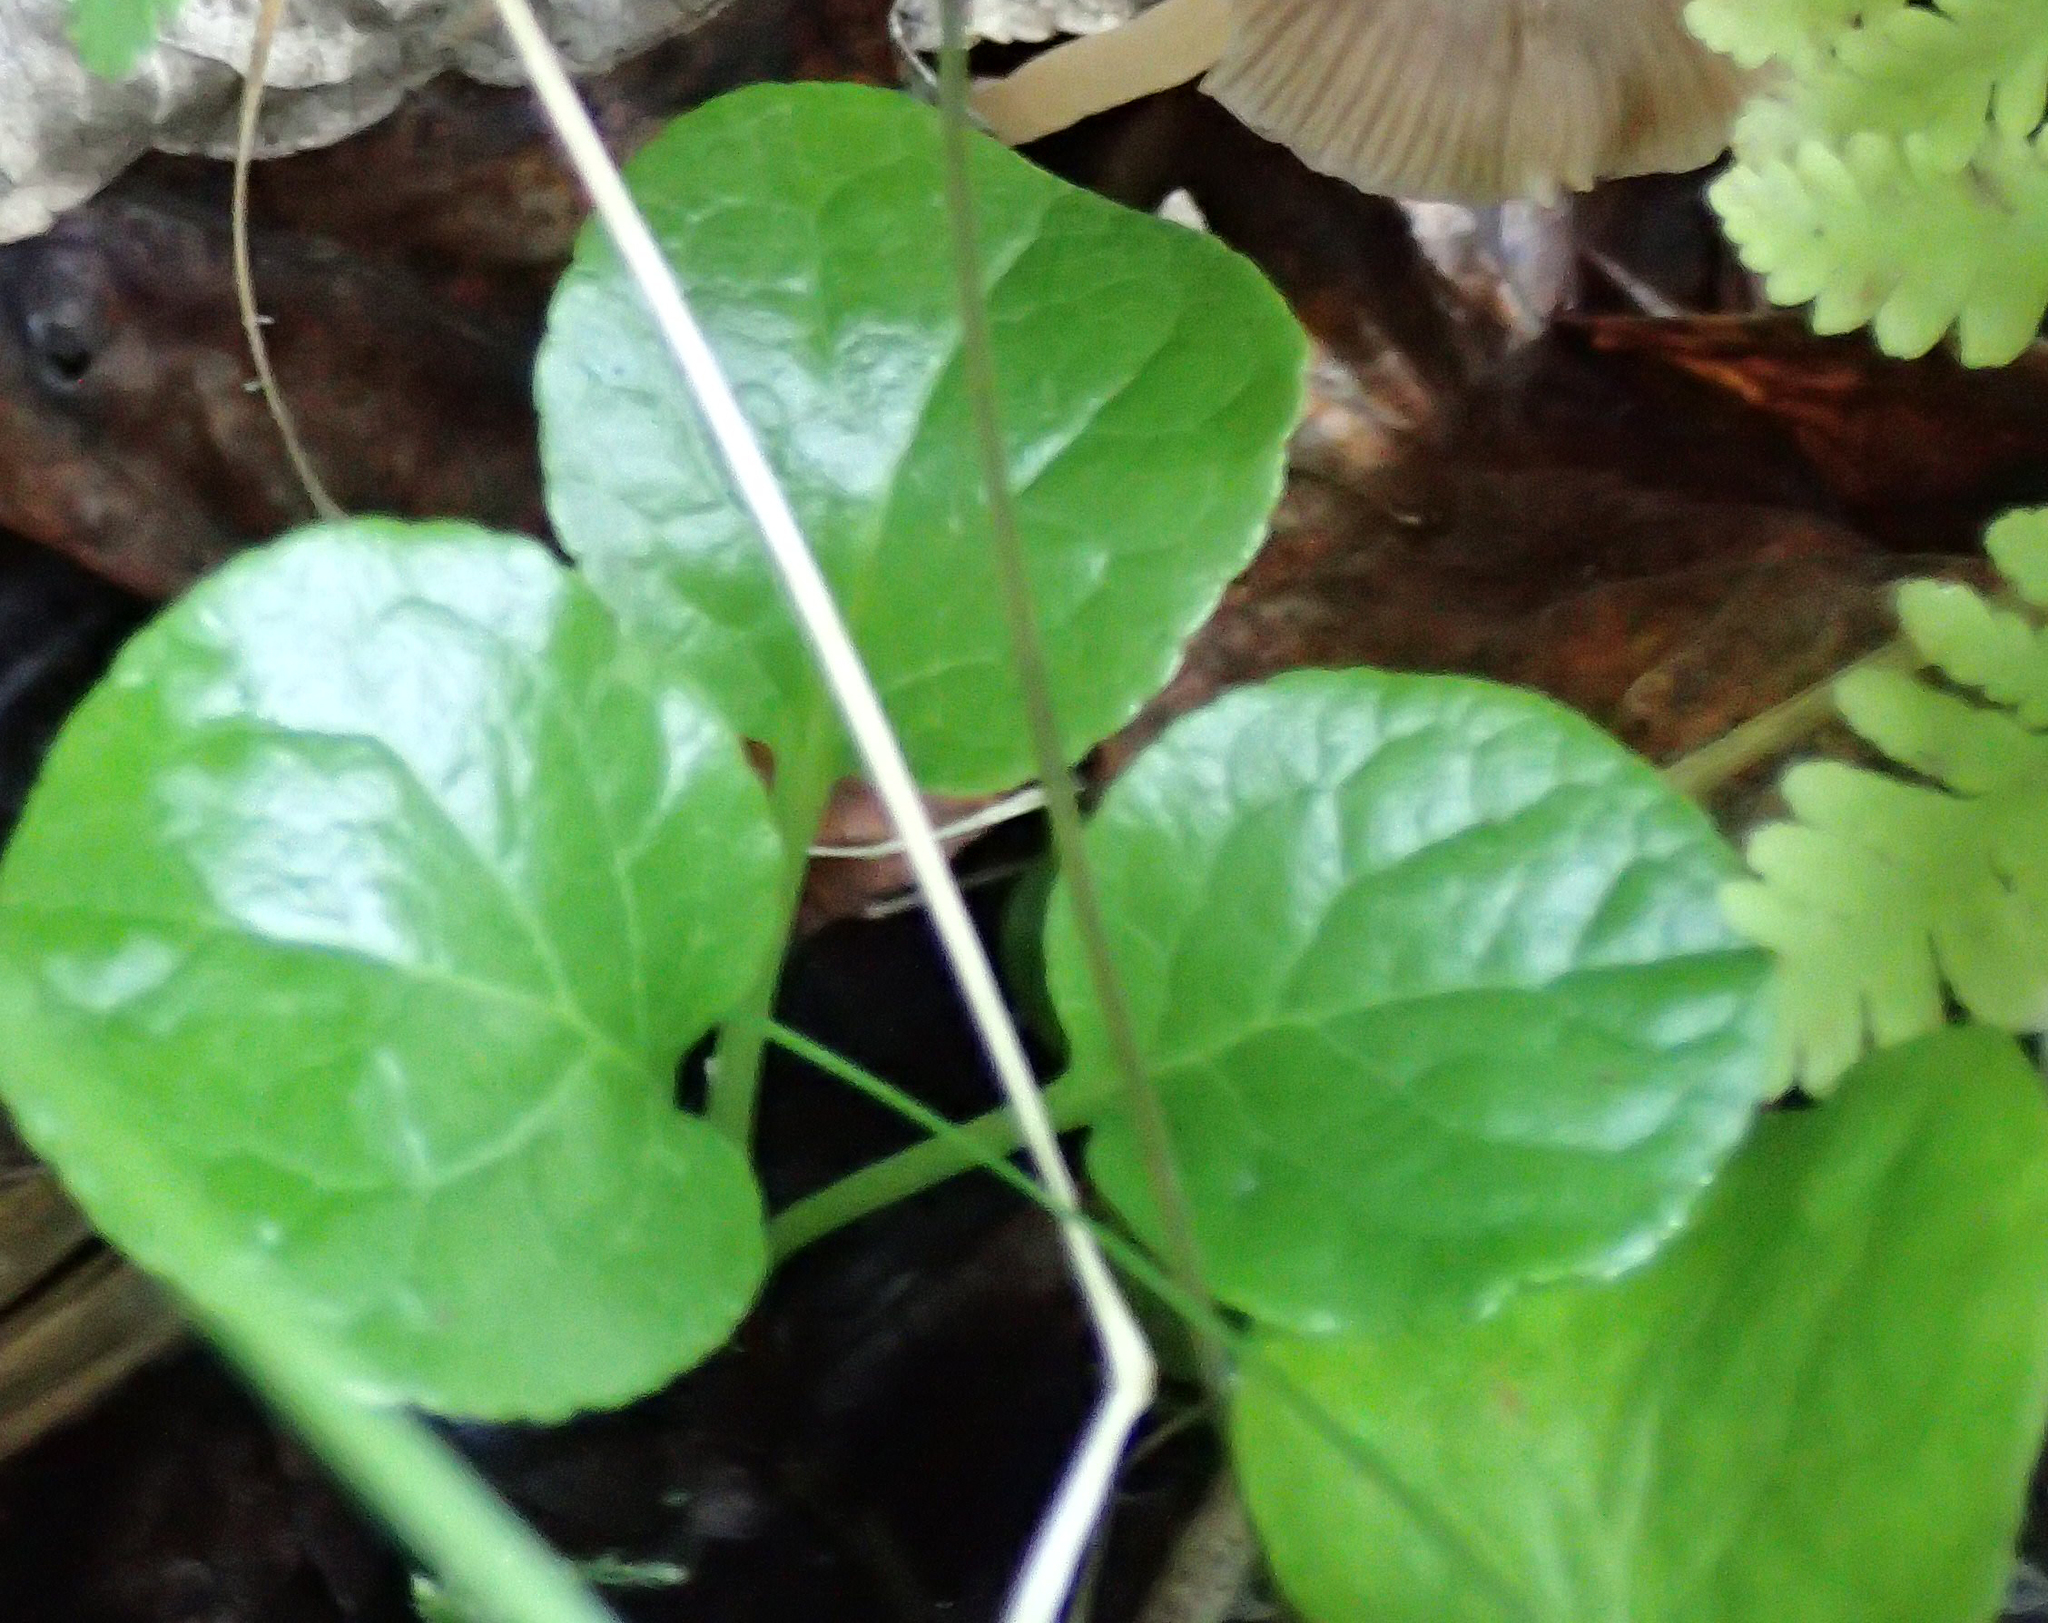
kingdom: Plantae
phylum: Tracheophyta
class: Magnoliopsida
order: Ericales
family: Ericaceae
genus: Pyrola
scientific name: Pyrola asarifolia
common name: Bog wintergreen
